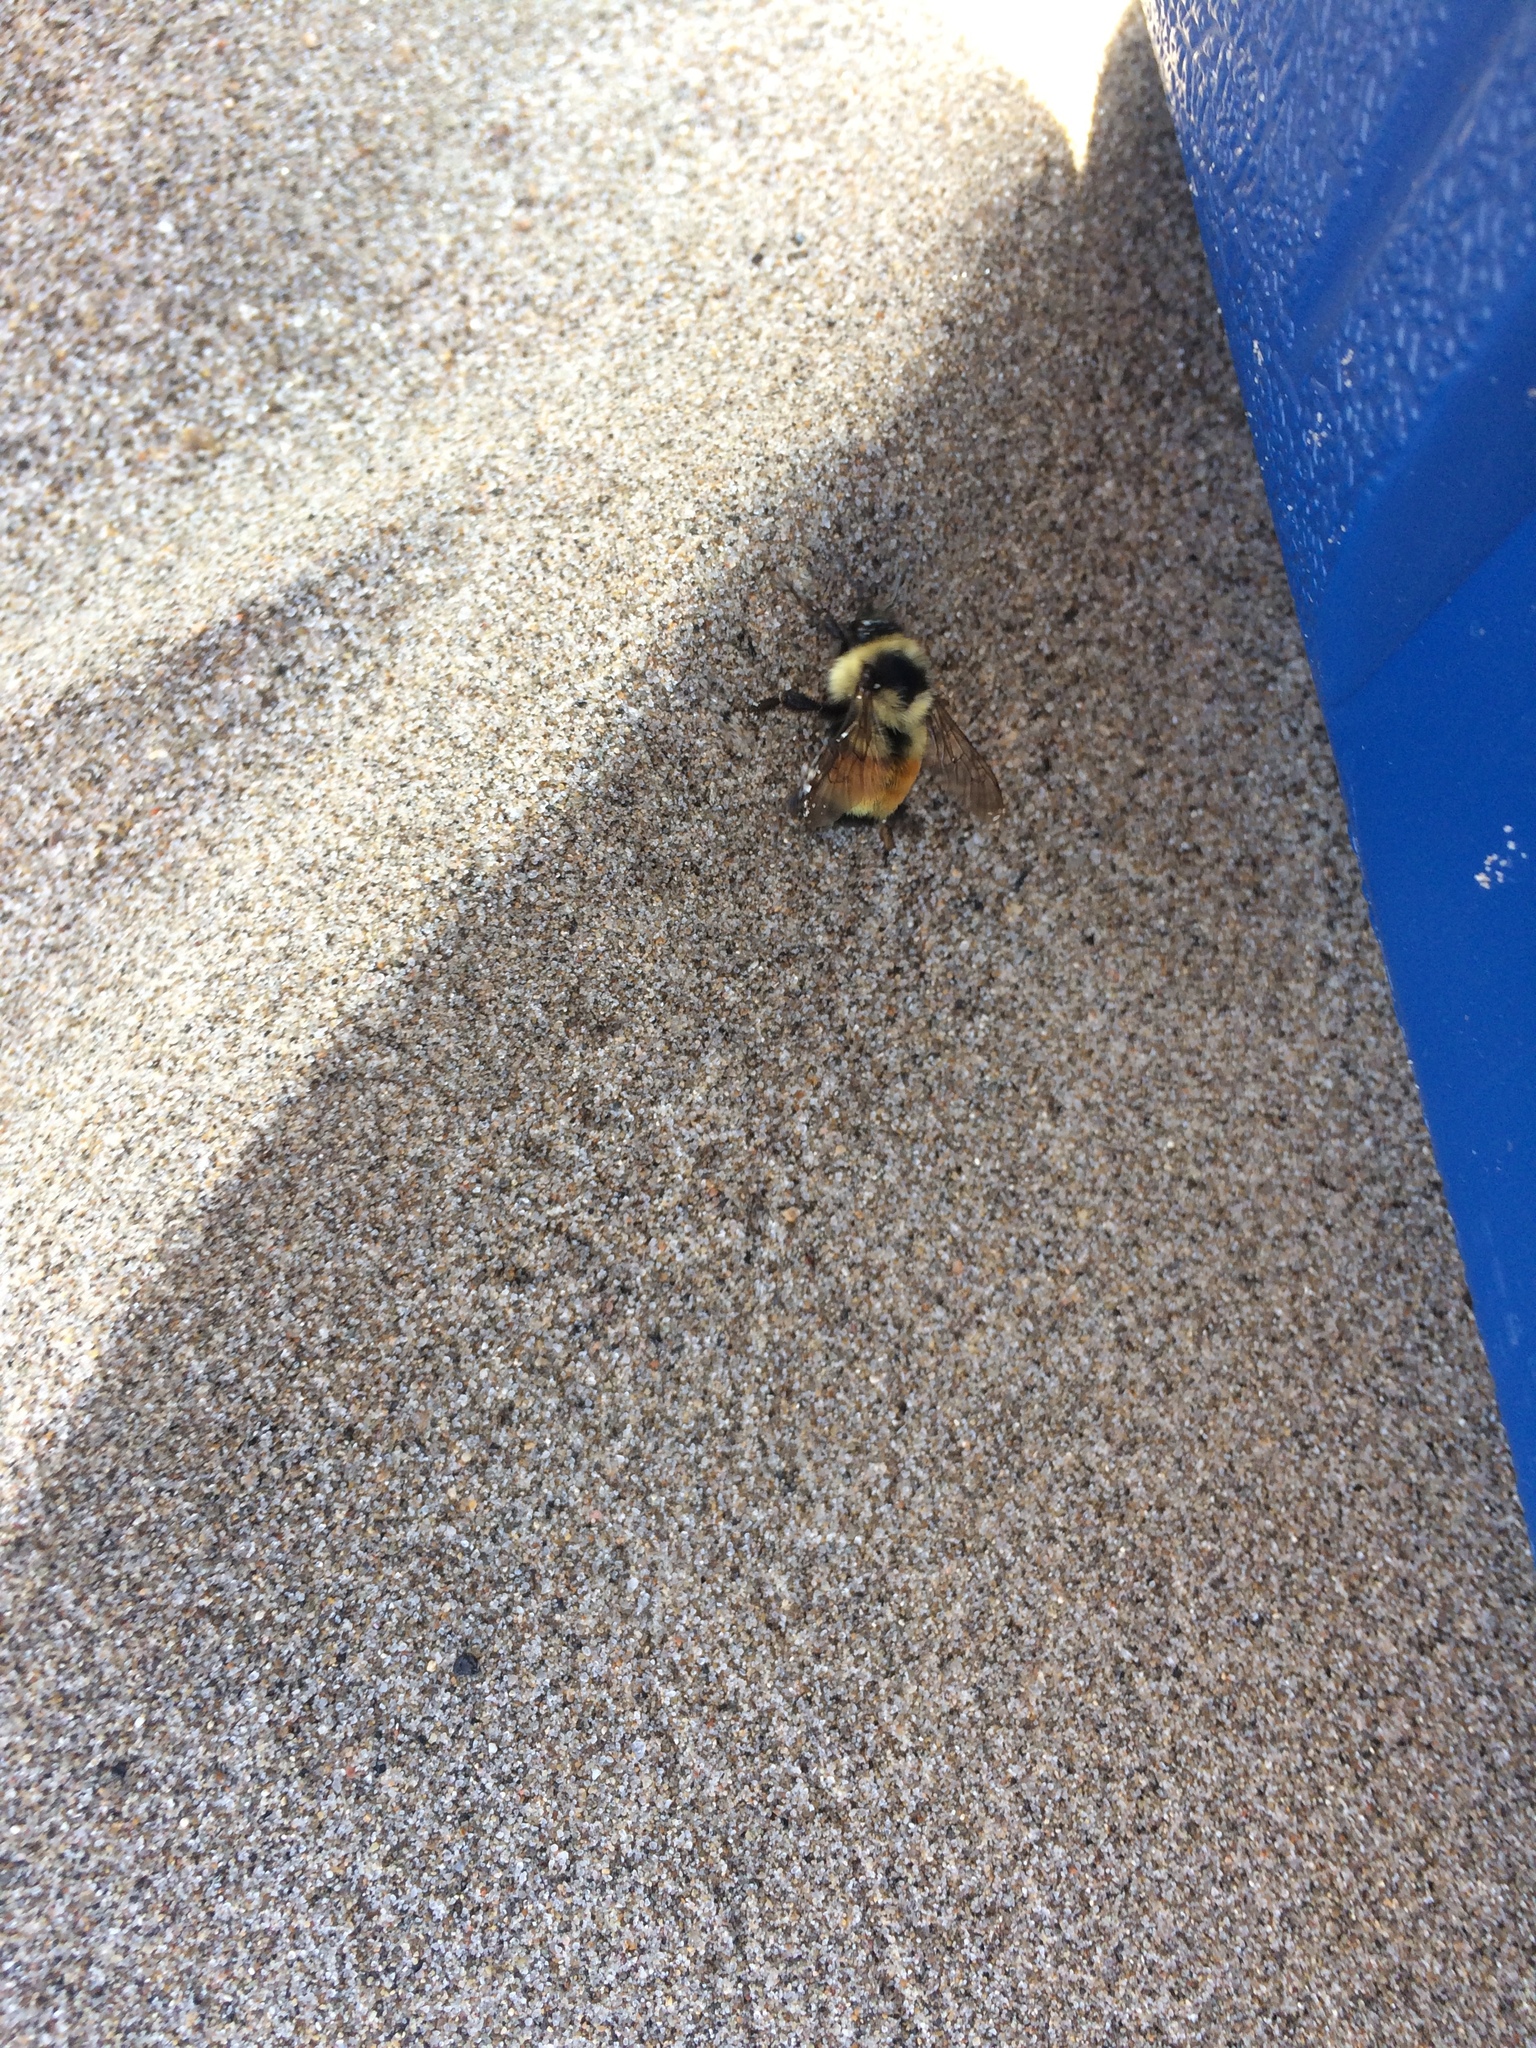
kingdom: Animalia
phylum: Arthropoda
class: Insecta
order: Hymenoptera
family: Apidae
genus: Bombus
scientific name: Bombus ternarius
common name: Tri-colored bumble bee
